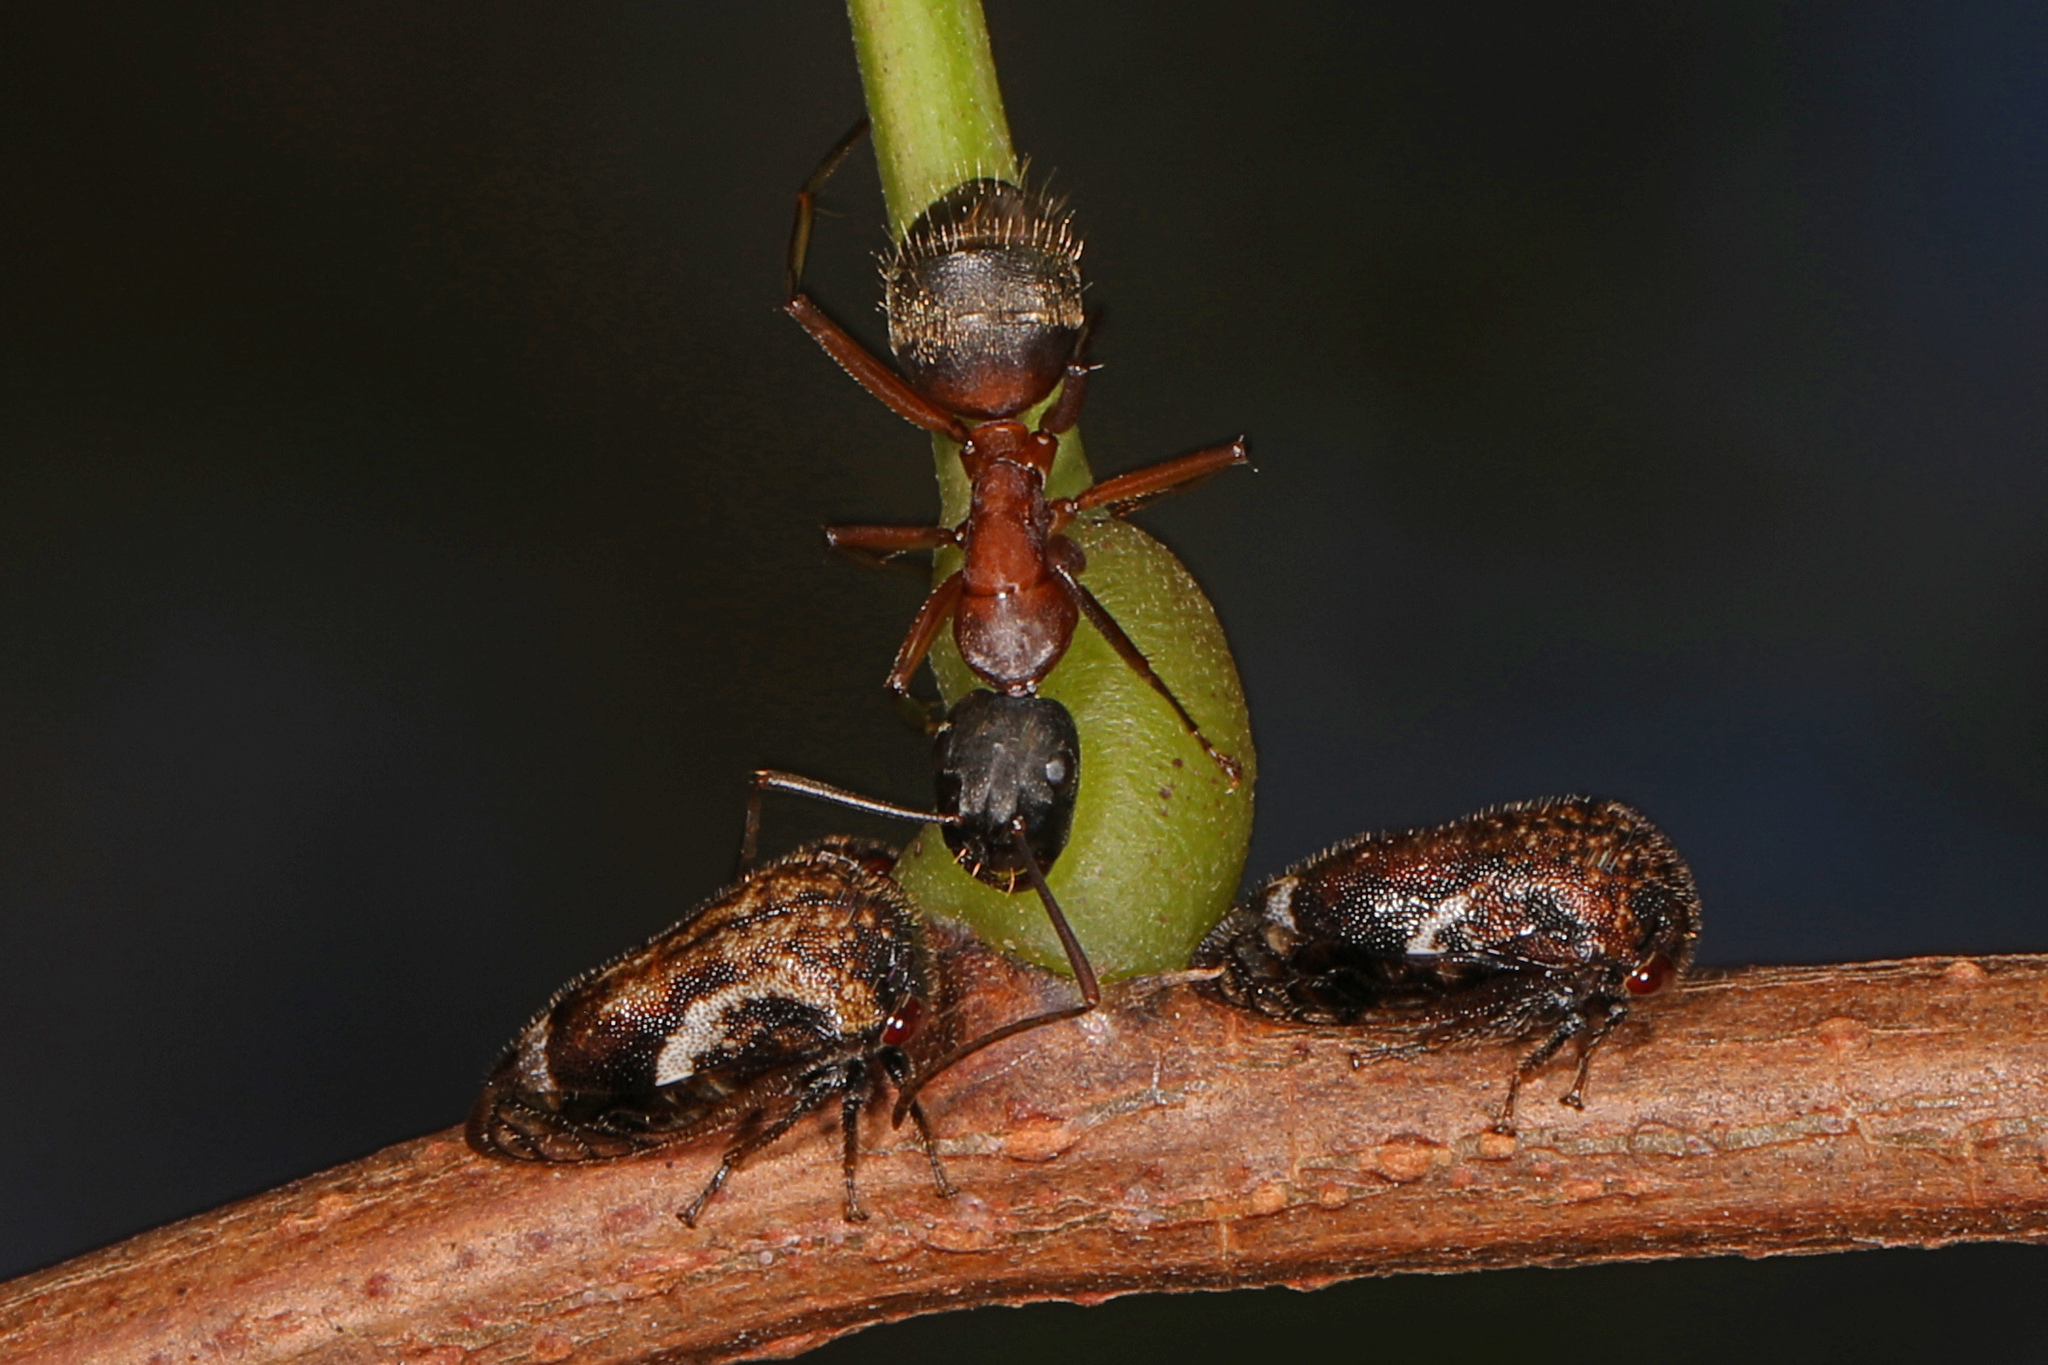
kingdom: Animalia
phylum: Arthropoda
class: Insecta
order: Hemiptera
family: Membracidae
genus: Vanduzea
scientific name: Vanduzea arquata
